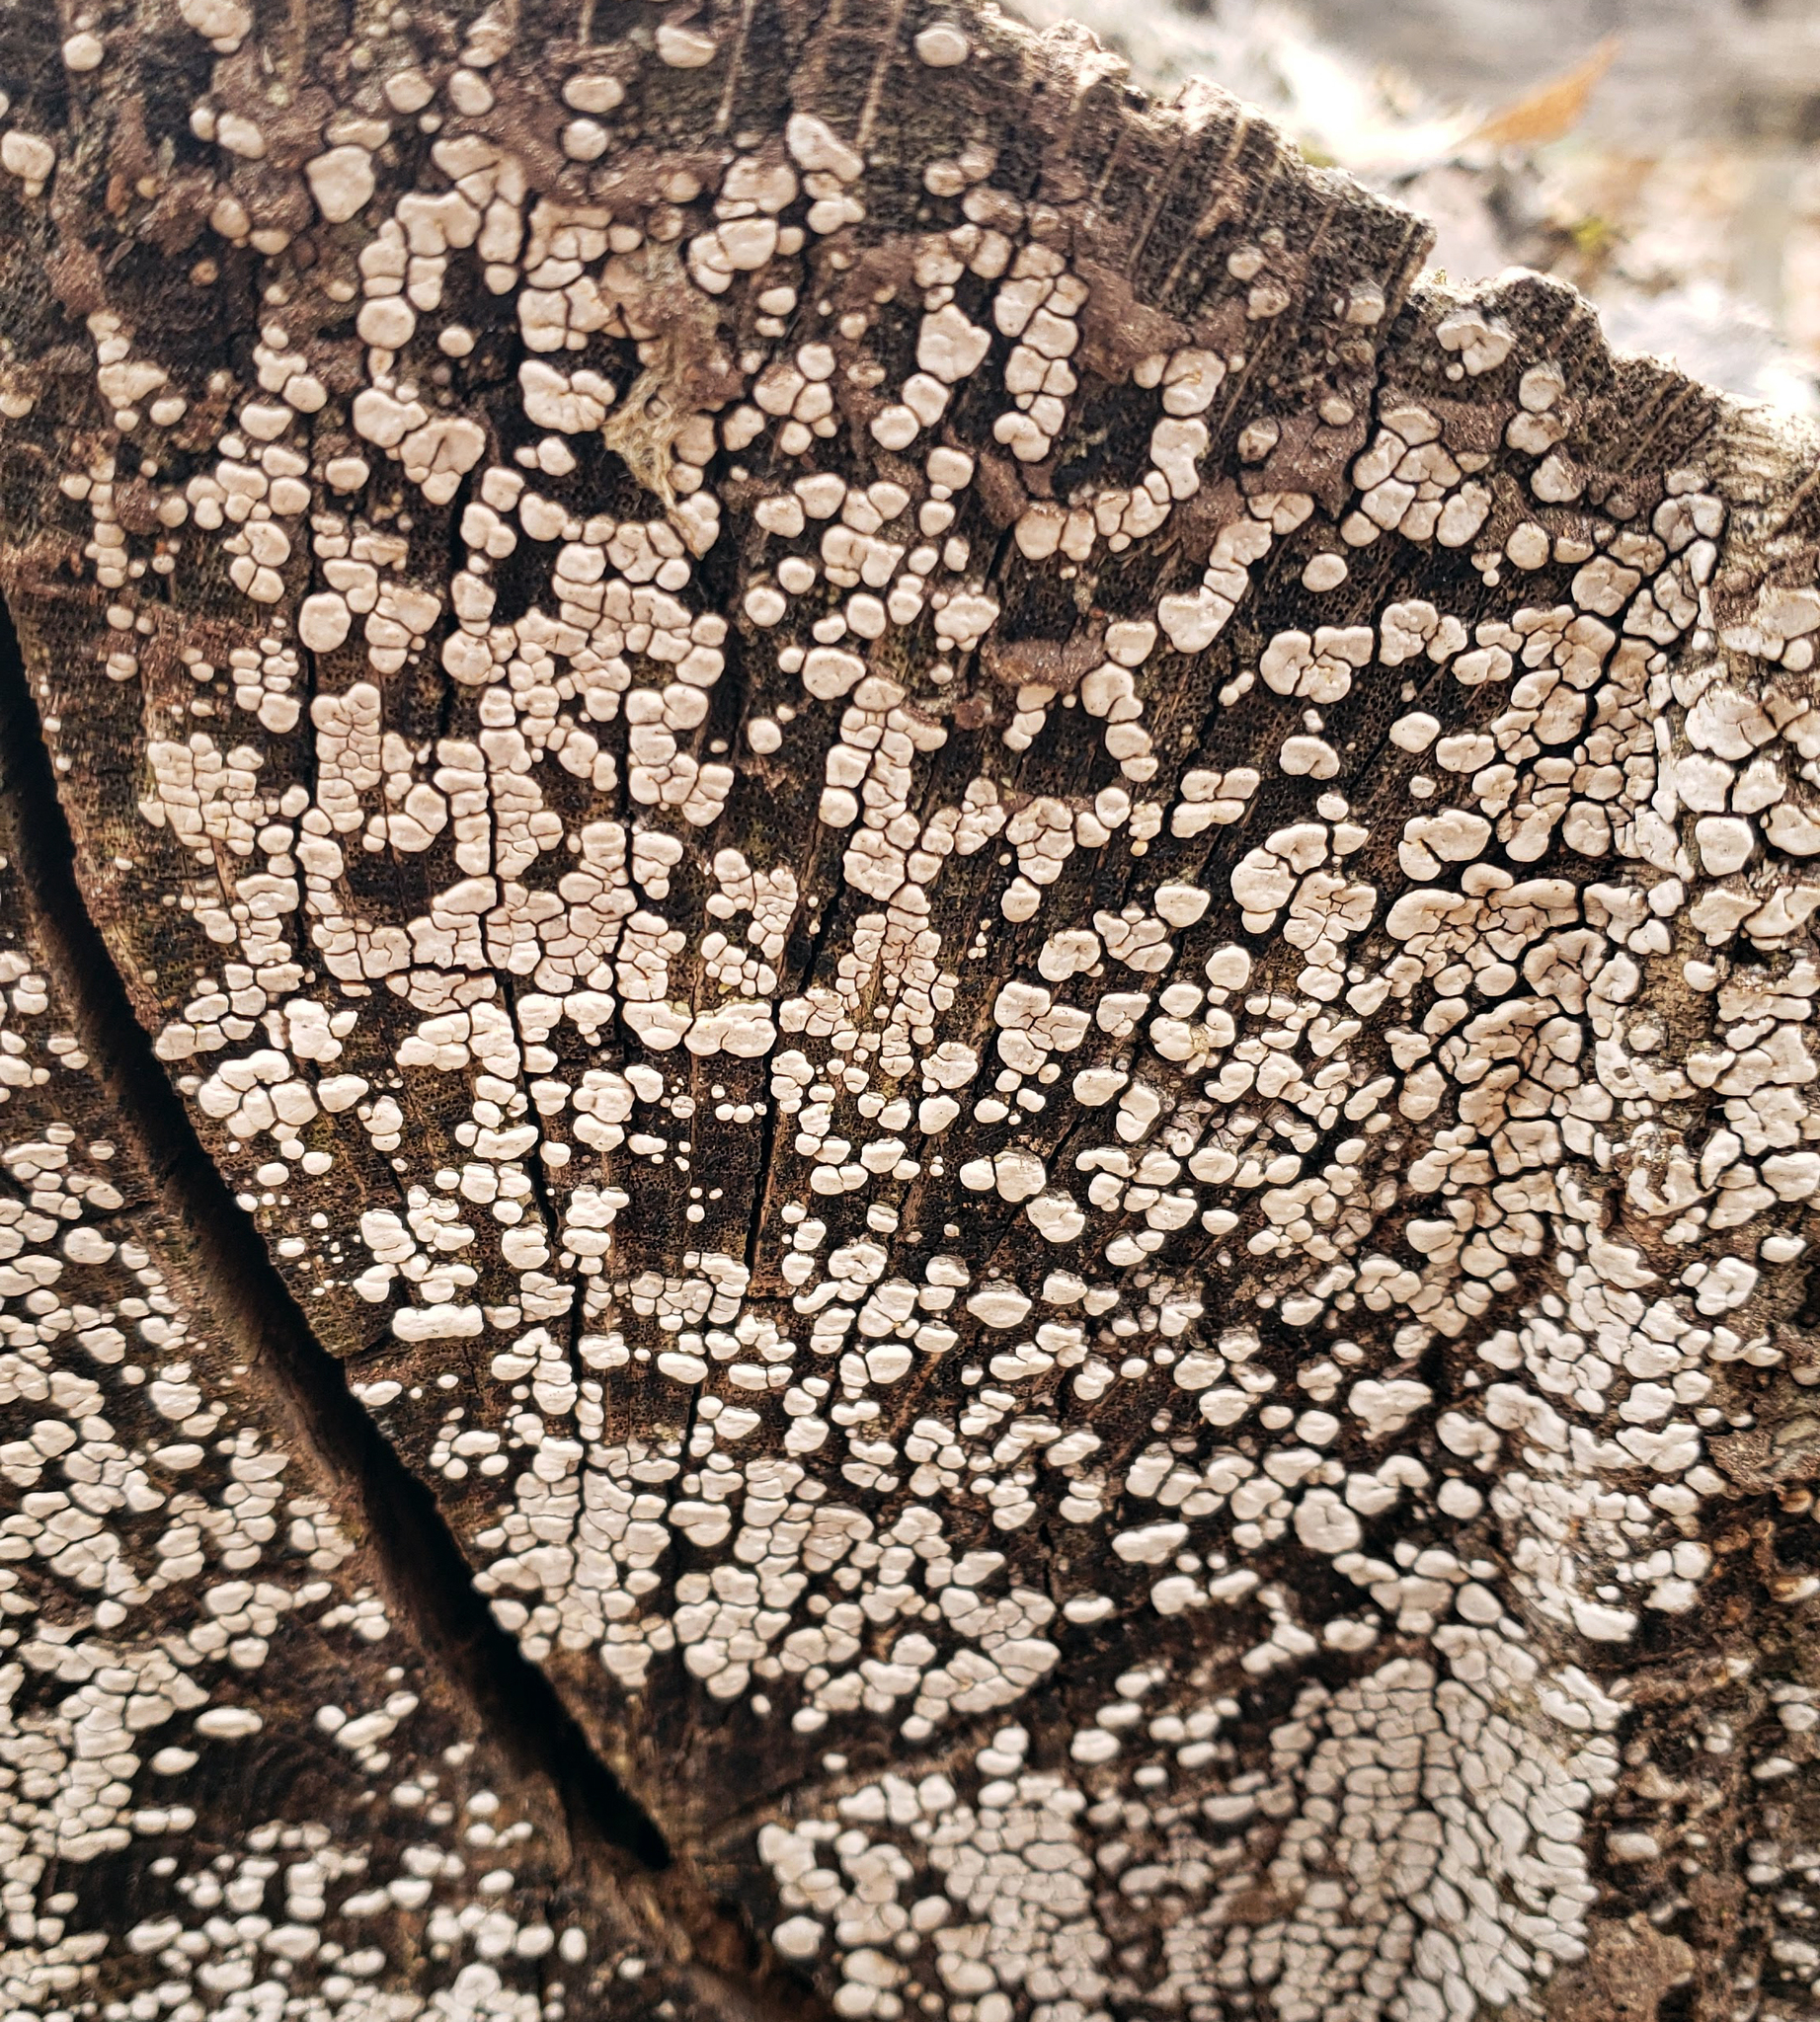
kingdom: Fungi
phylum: Basidiomycota
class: Agaricomycetes
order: Russulales
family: Stereaceae
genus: Xylobolus
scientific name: Xylobolus frustulatus
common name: Ceramic parchment
